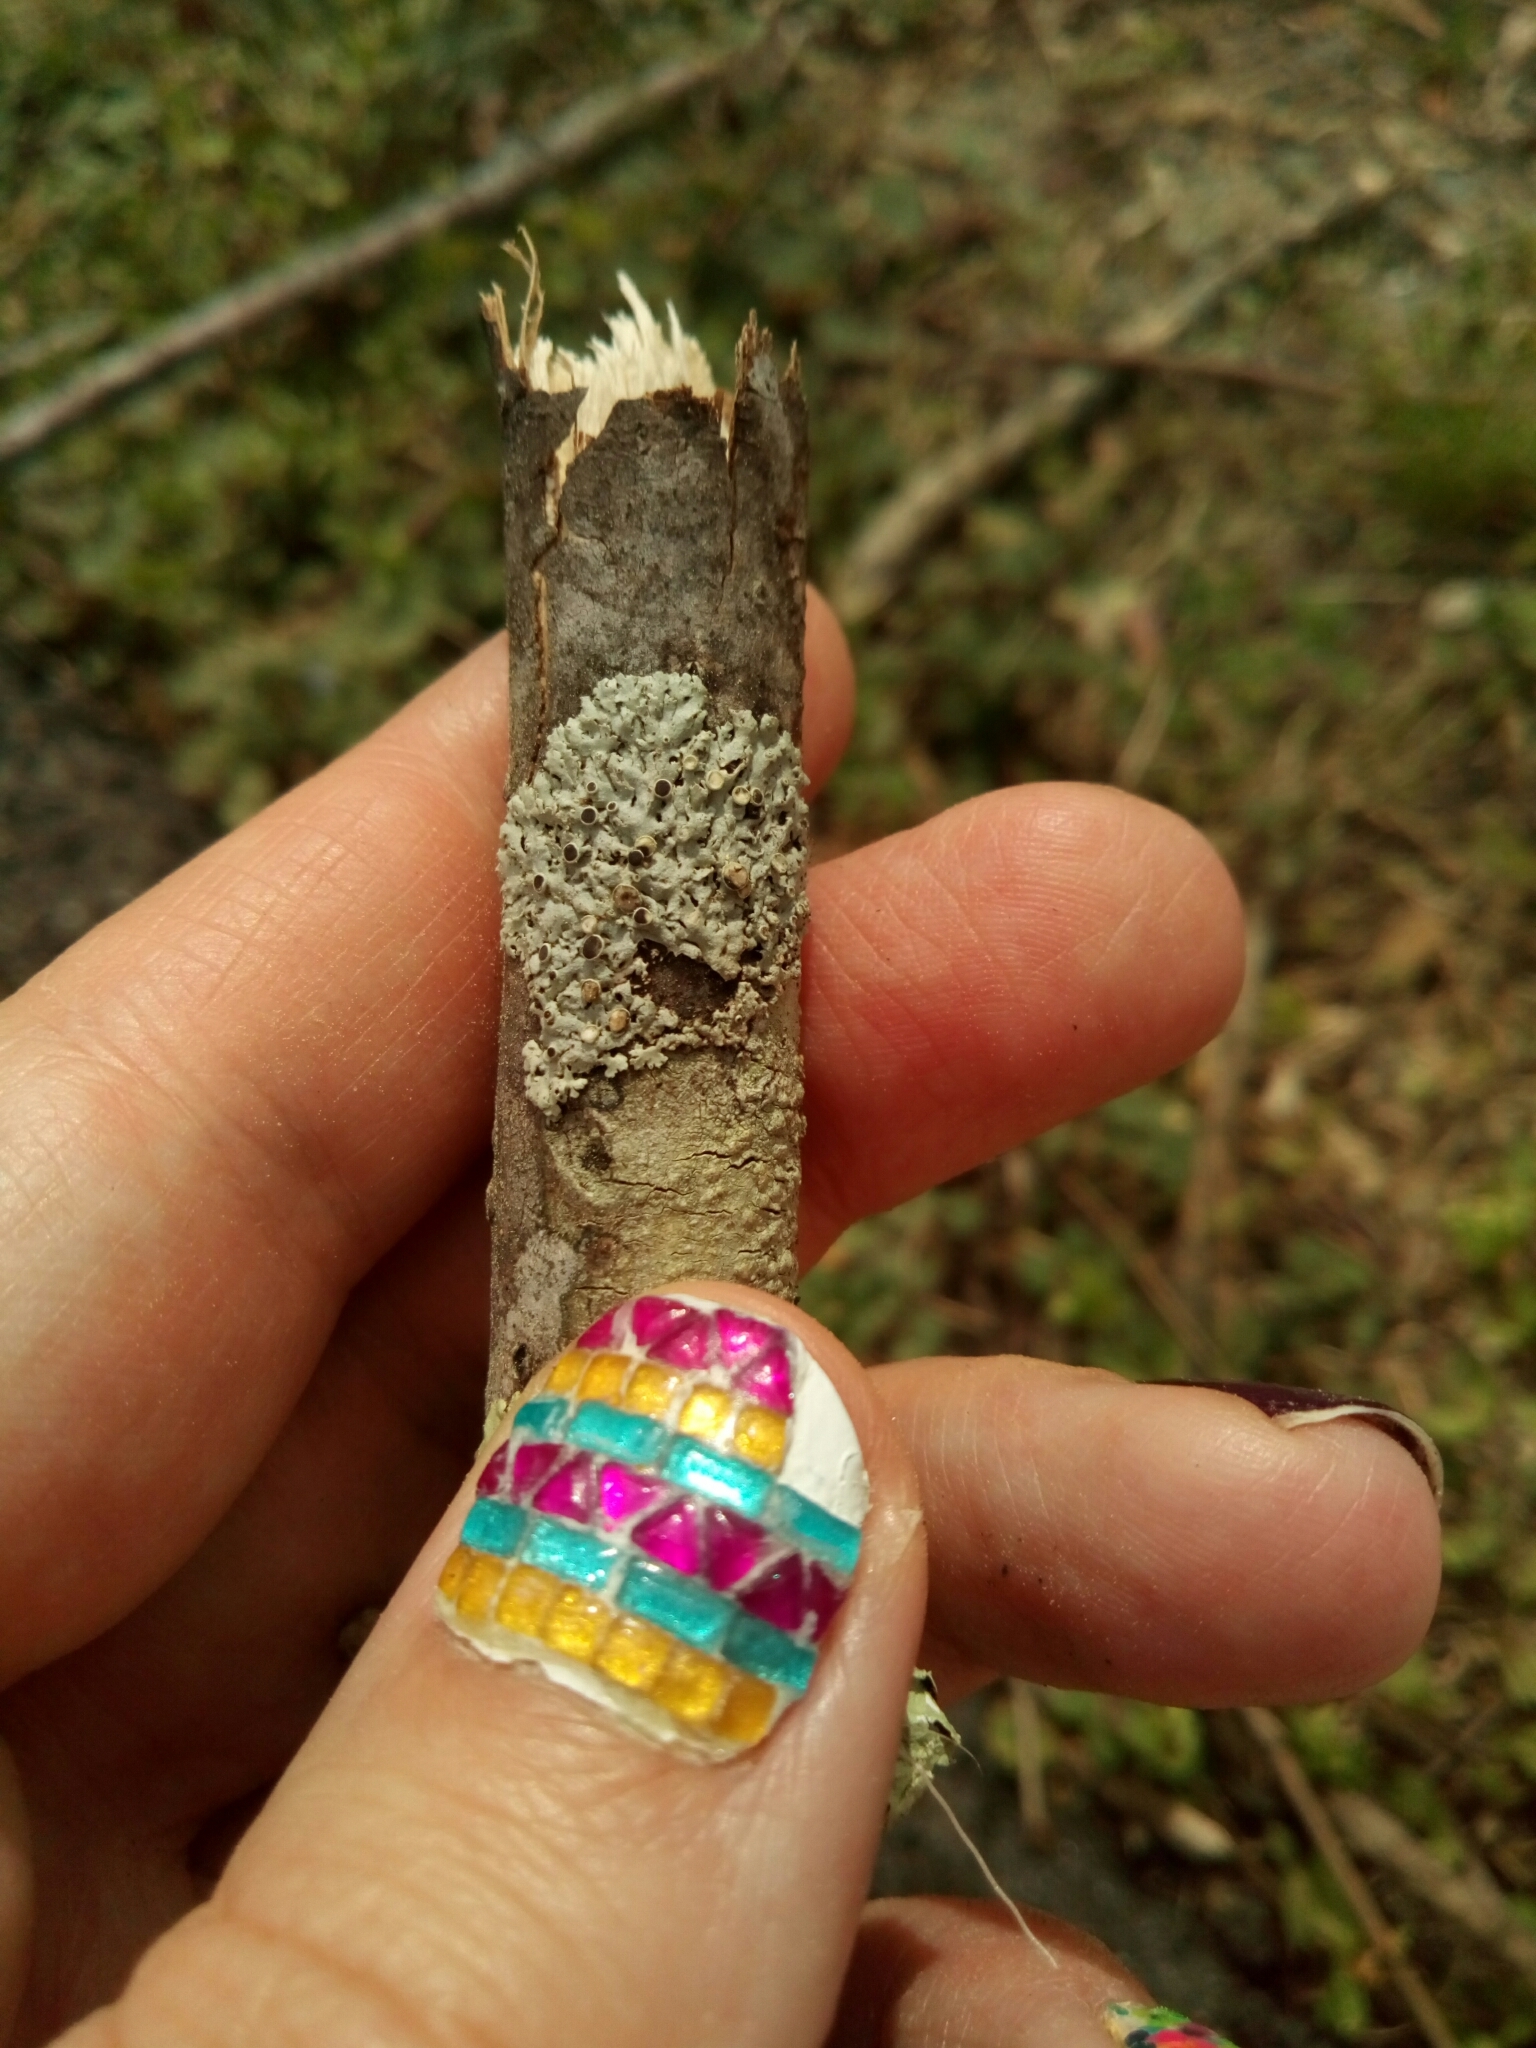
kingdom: Fungi
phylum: Ascomycota
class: Lecanoromycetes
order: Caliciales
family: Physciaceae
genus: Physcia
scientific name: Physcia stellaris
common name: Star rosette lichen
